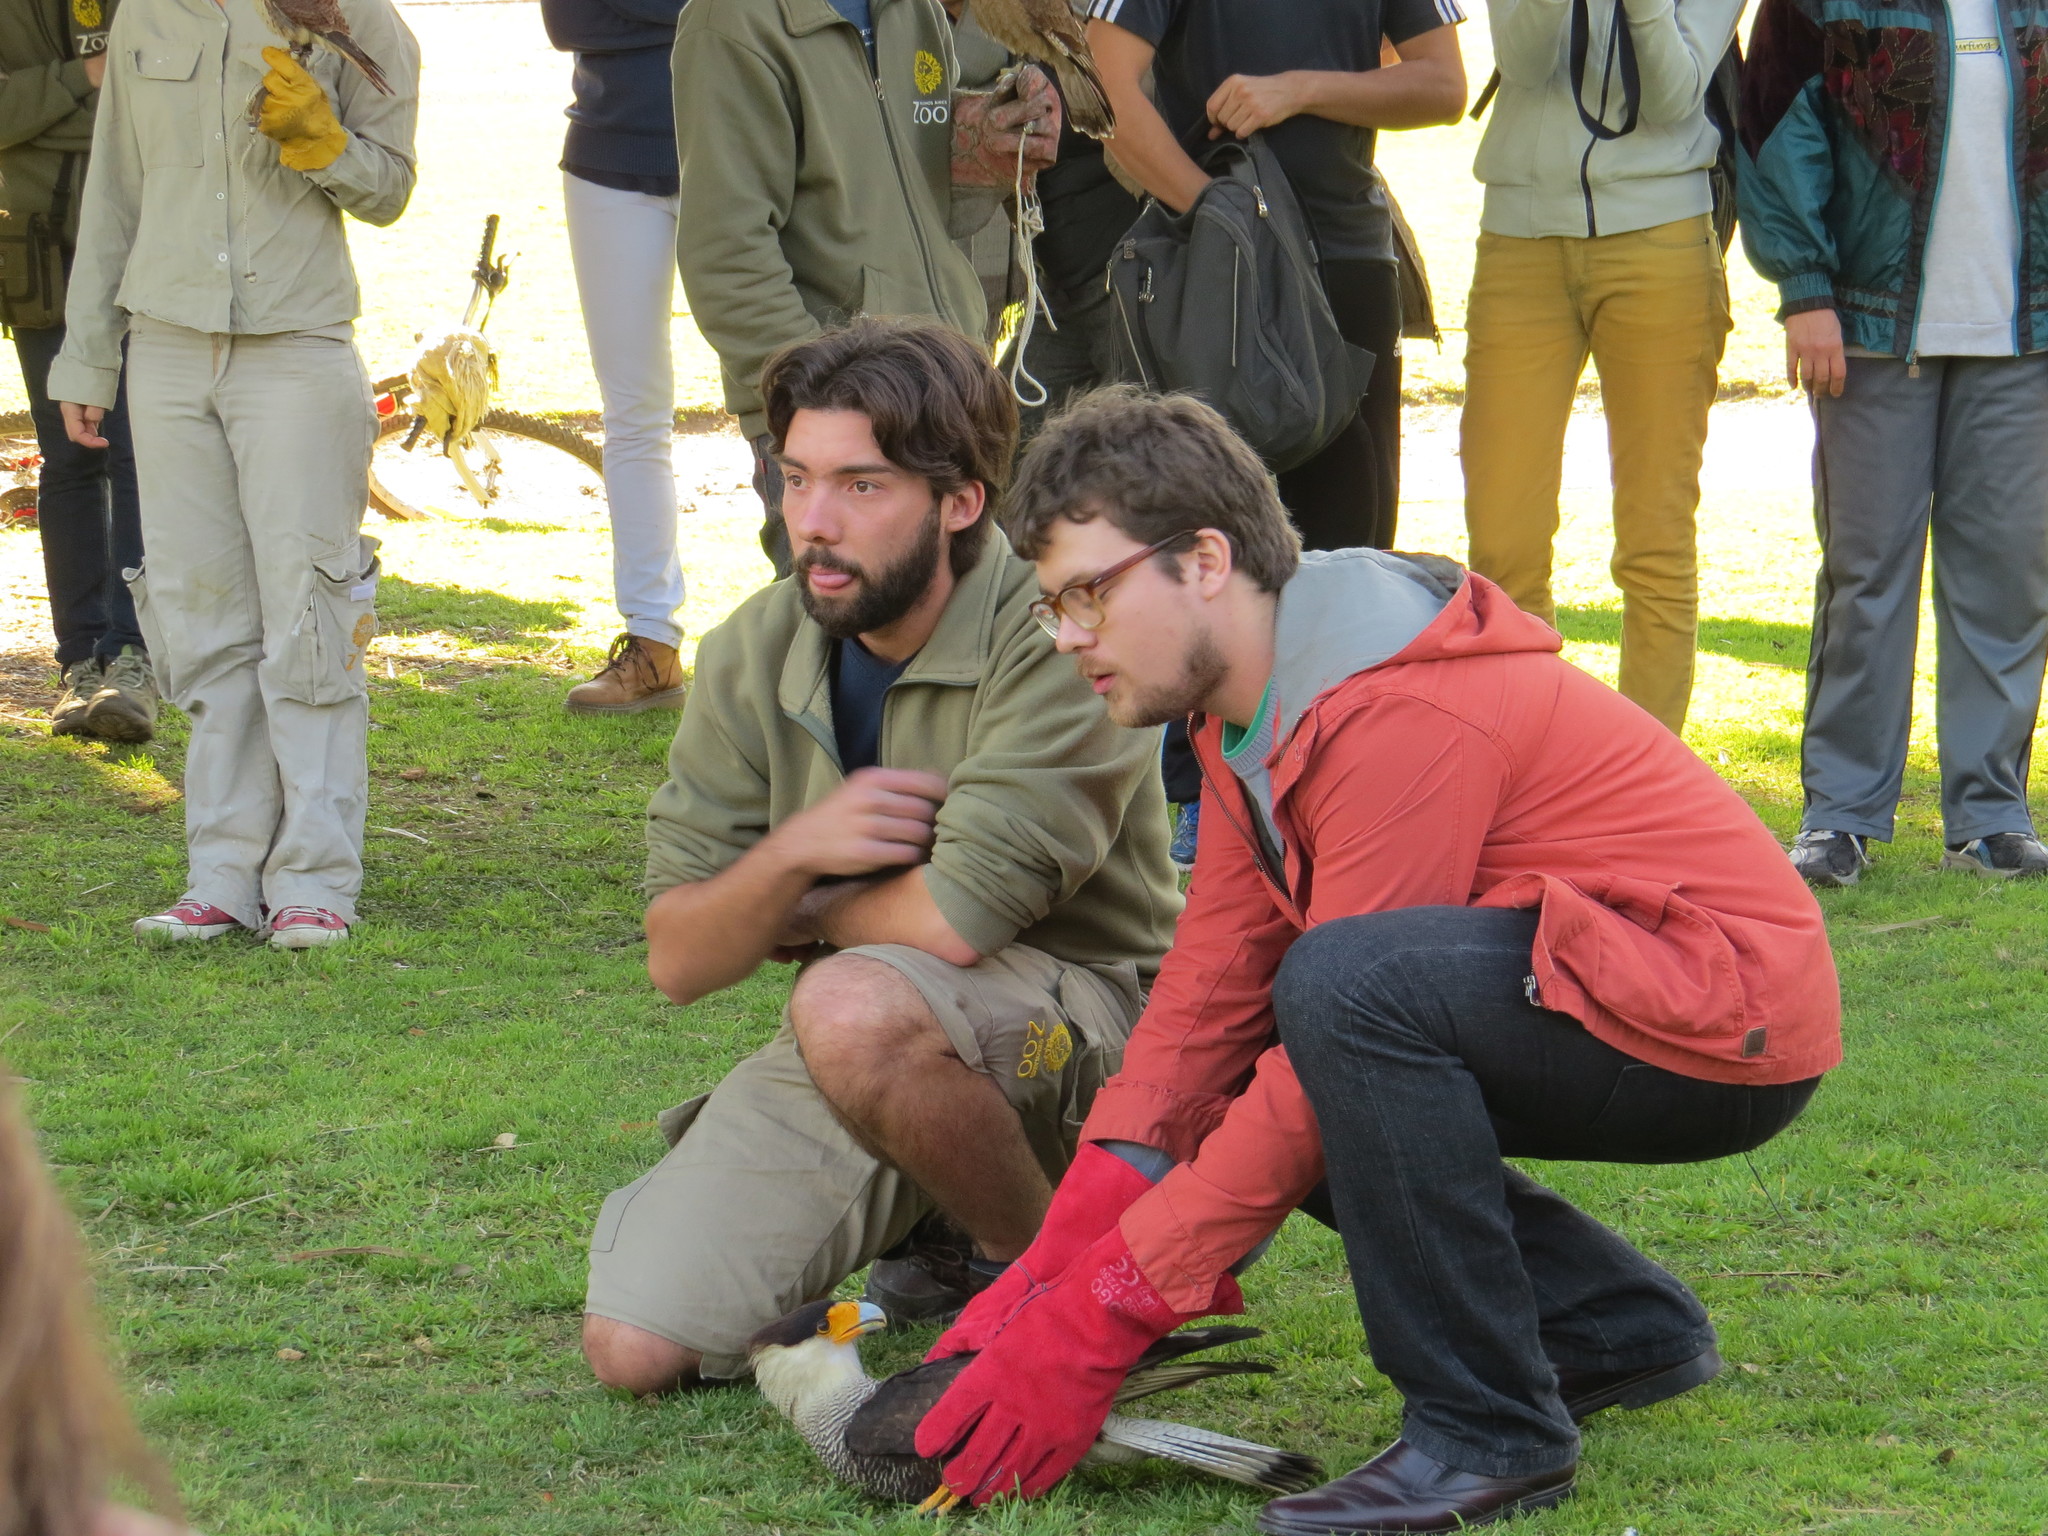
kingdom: Animalia
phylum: Chordata
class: Aves
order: Falconiformes
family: Falconidae
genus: Caracara
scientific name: Caracara plancus
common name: Southern caracara
